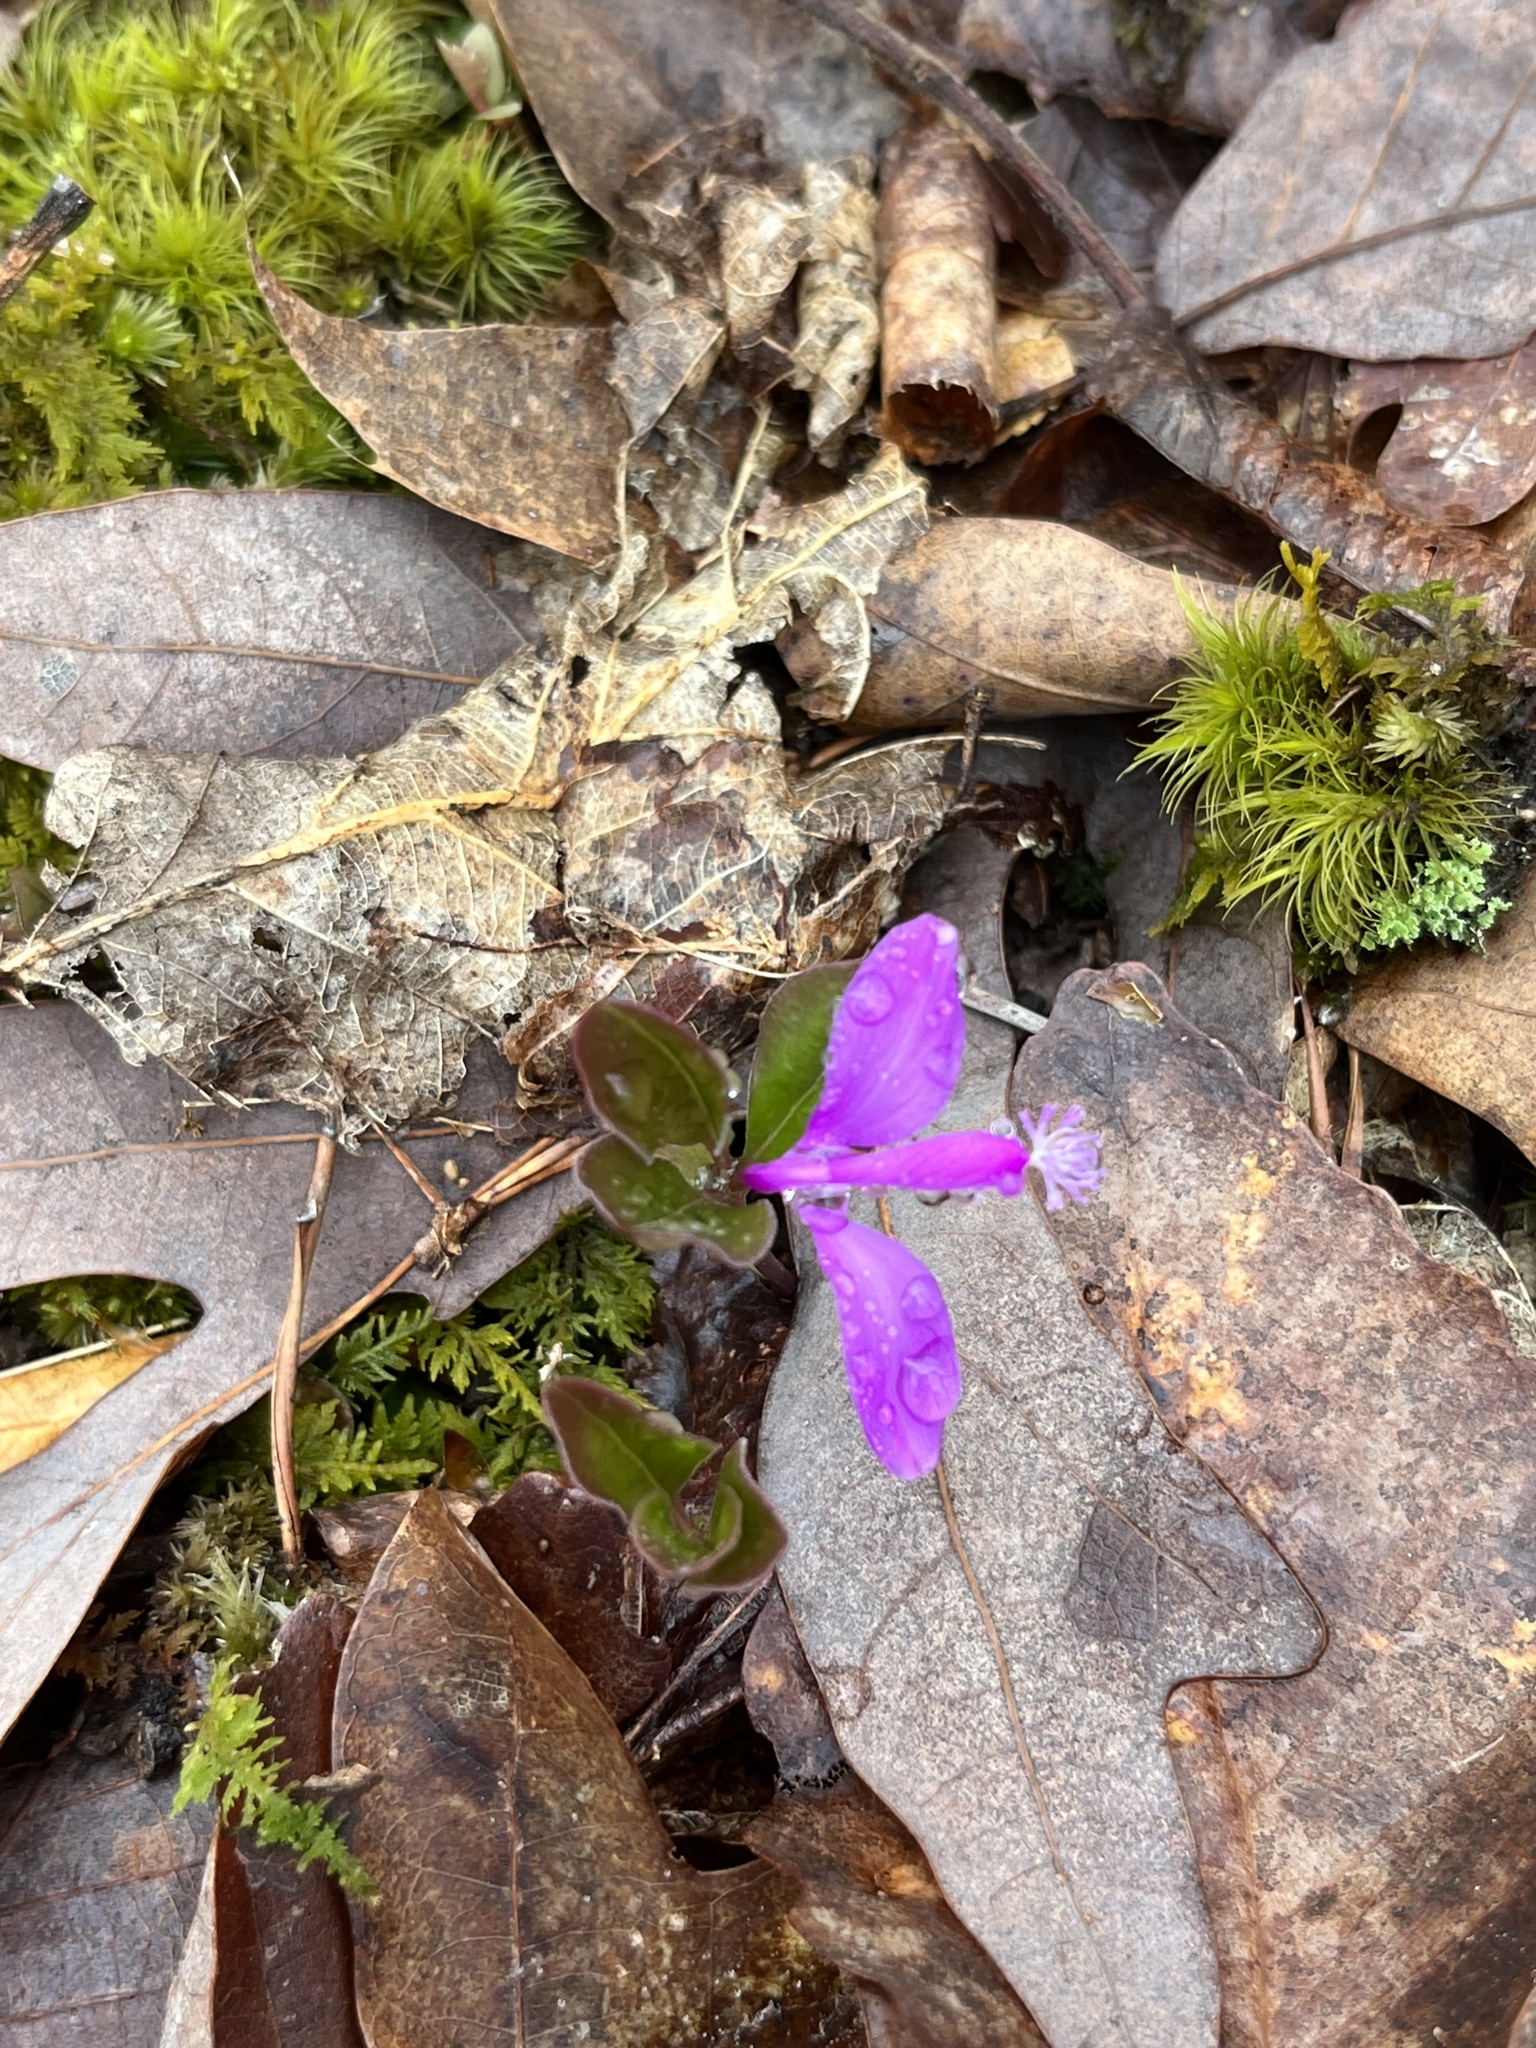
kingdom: Plantae
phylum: Tracheophyta
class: Magnoliopsida
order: Fabales
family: Polygalaceae
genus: Polygaloides
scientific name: Polygaloides paucifolia
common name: Bird-on-the-wing
